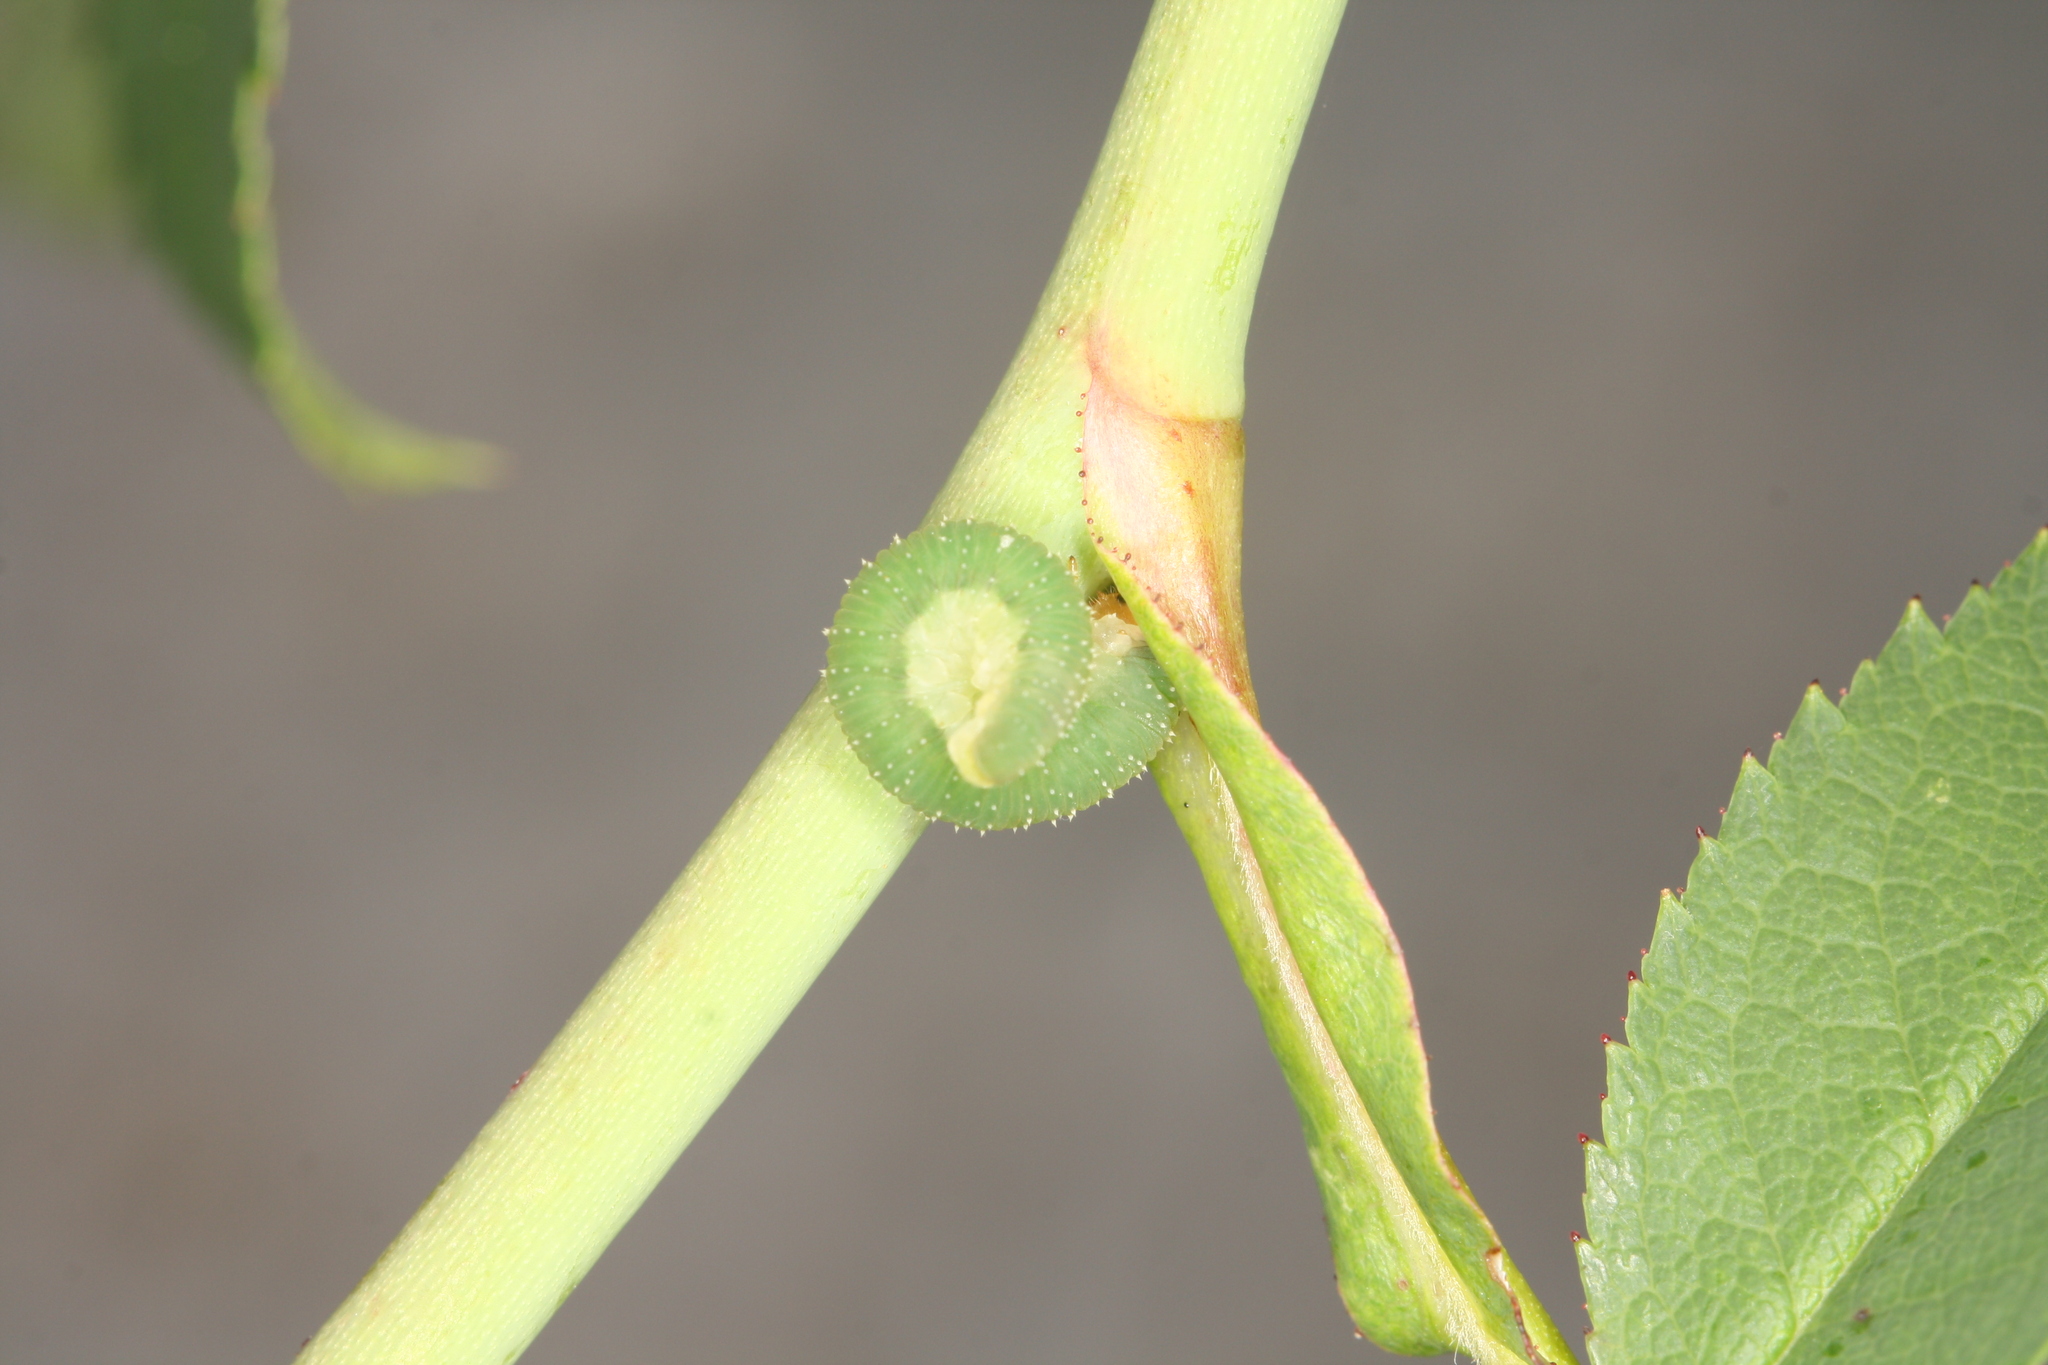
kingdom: Animalia
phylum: Arthropoda
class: Insecta
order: Hymenoptera
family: Tenthredinidae
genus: Allantus
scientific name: Allantus viennensis
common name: Sawfly
